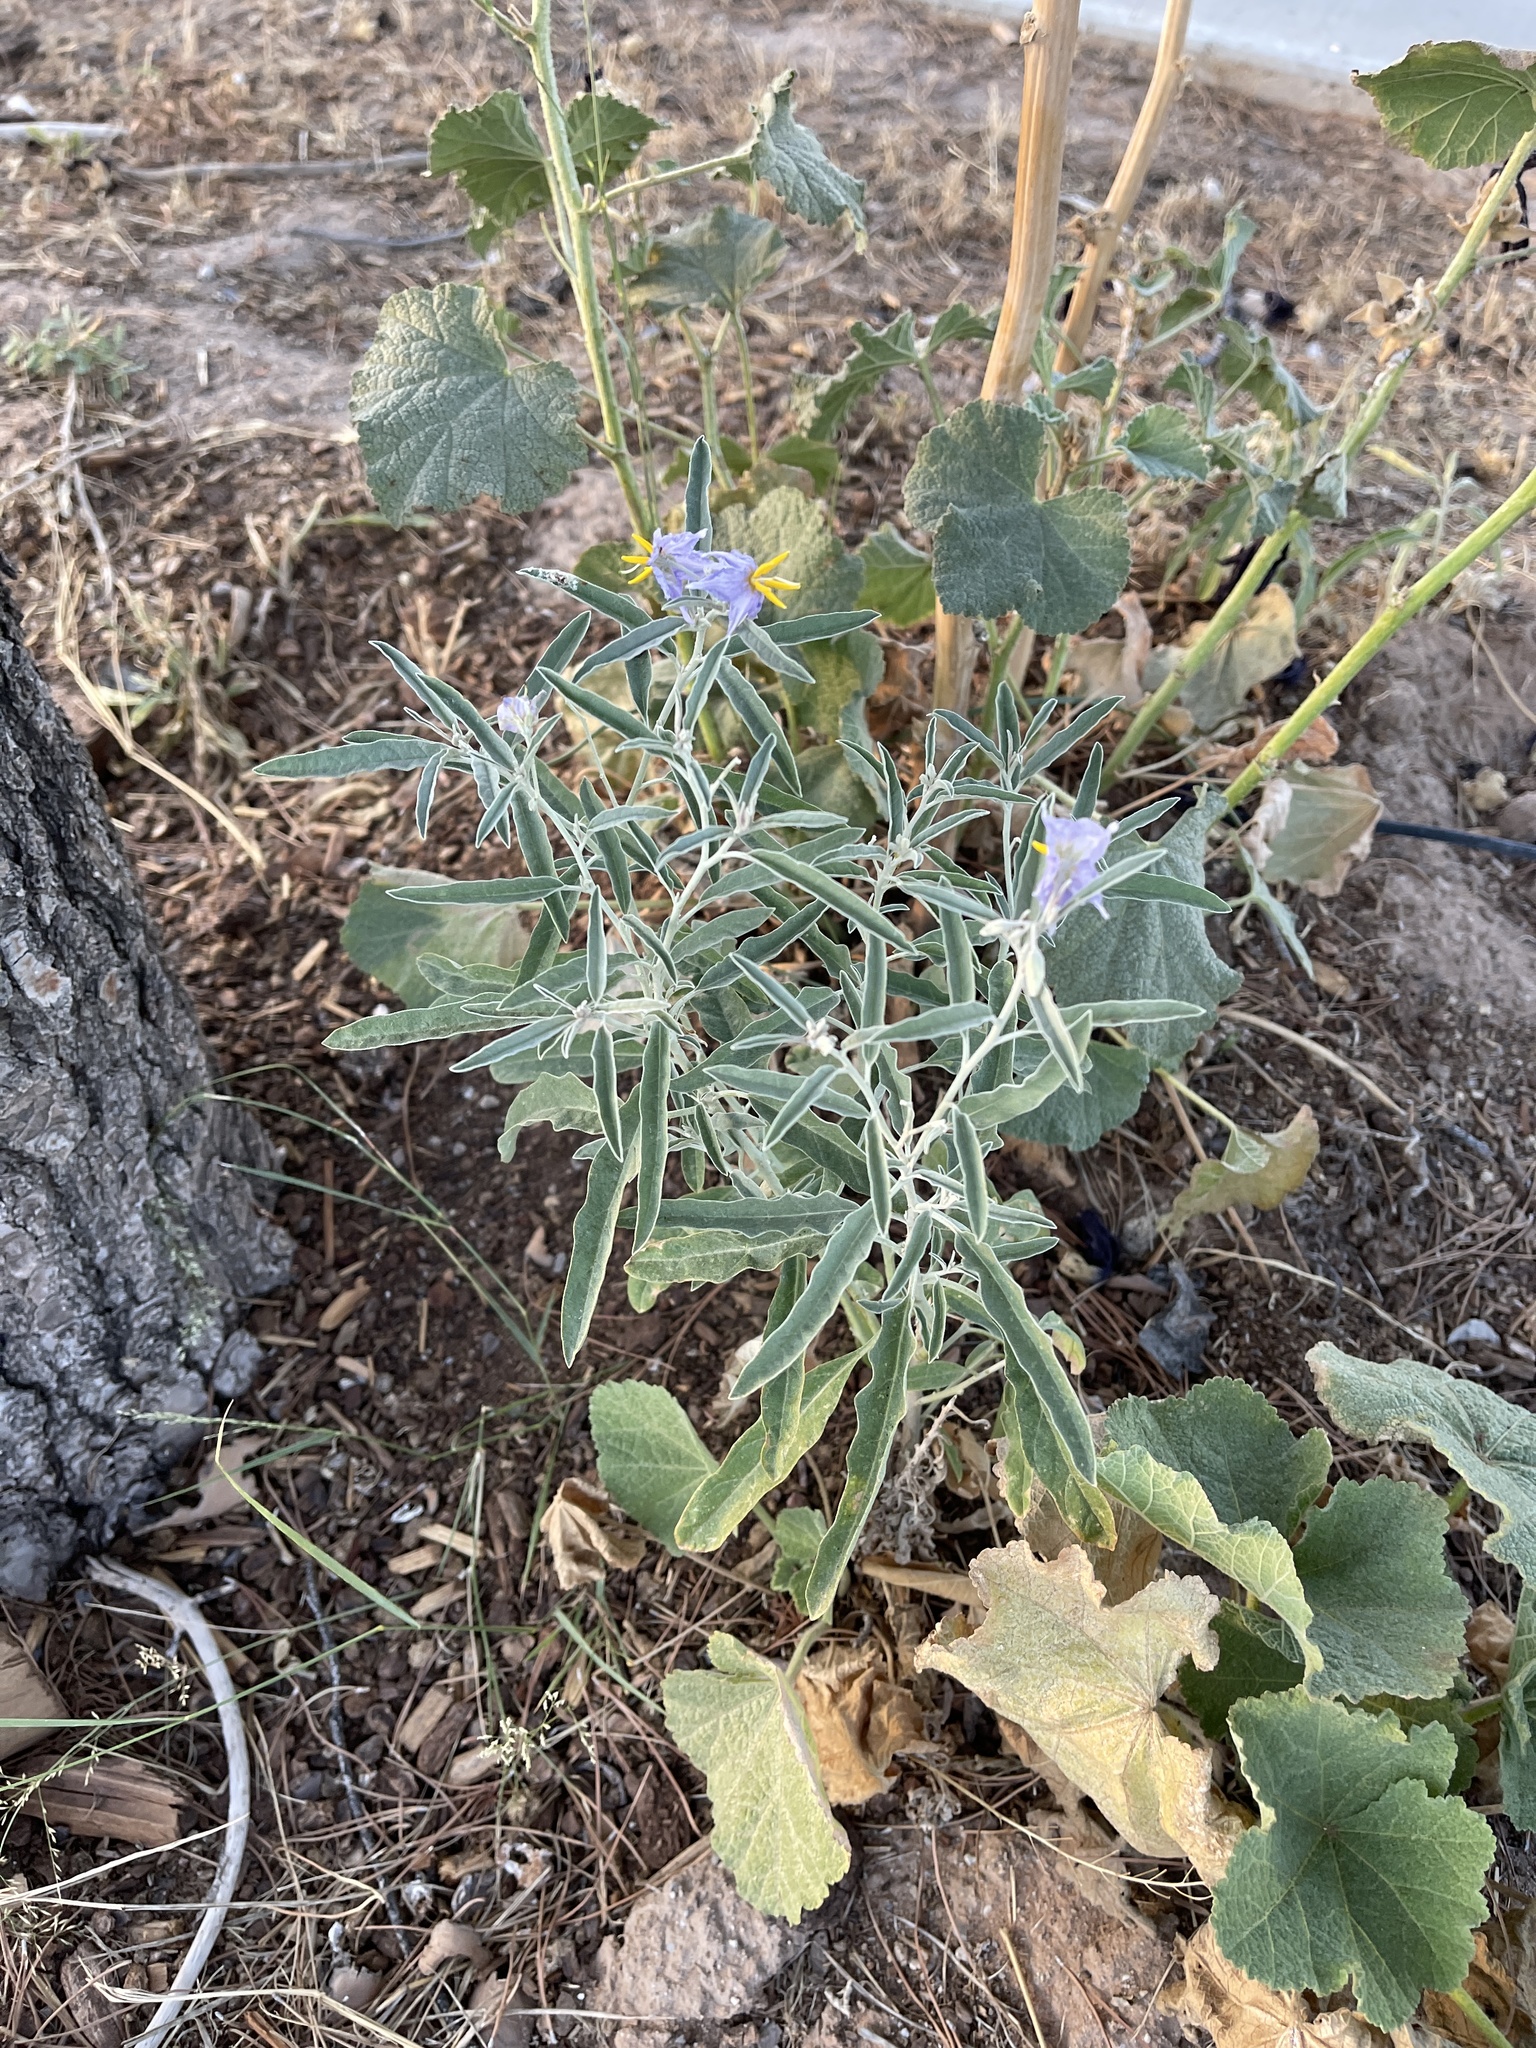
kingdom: Plantae
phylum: Tracheophyta
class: Magnoliopsida
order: Solanales
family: Solanaceae
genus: Solanum
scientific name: Solanum elaeagnifolium
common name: Silverleaf nightshade
